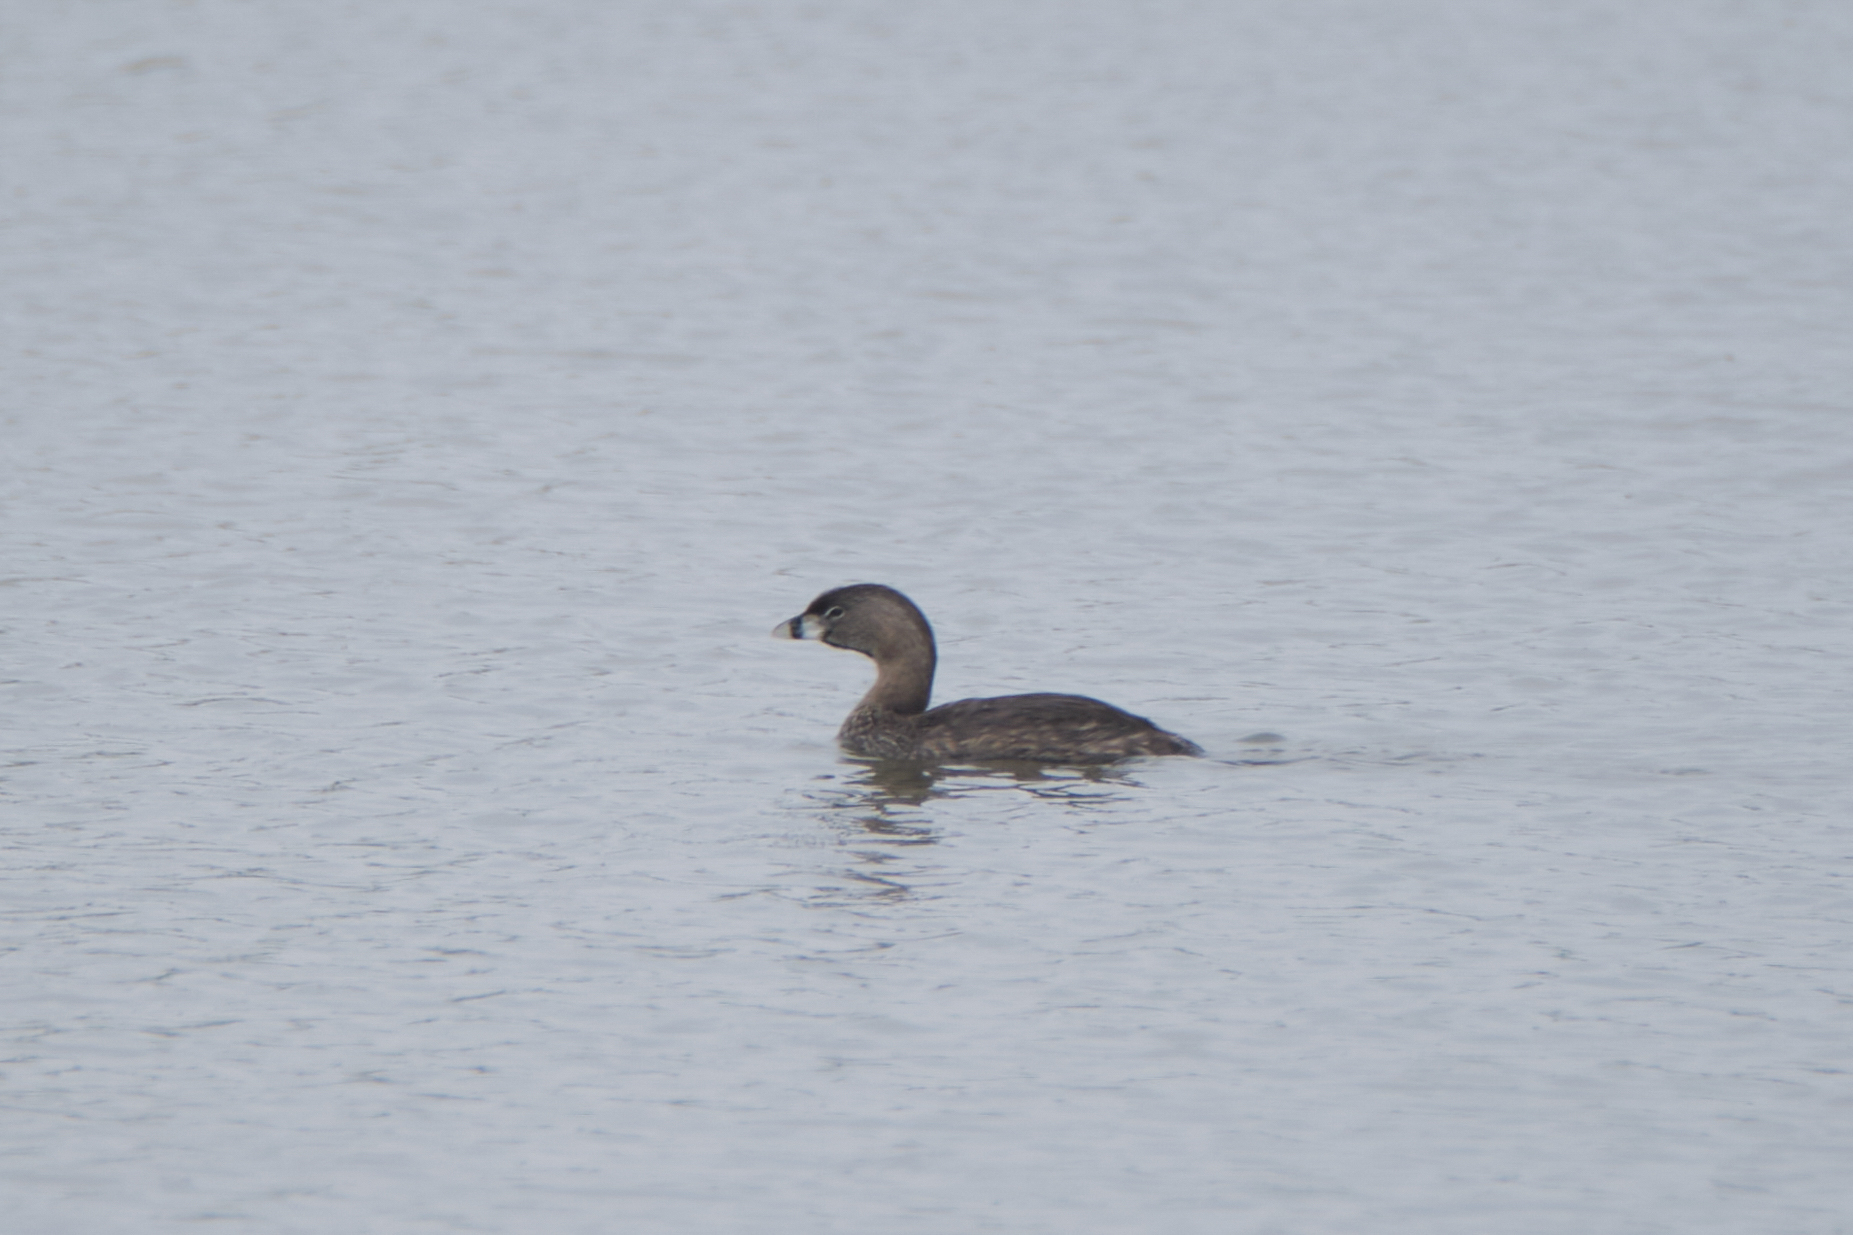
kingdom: Animalia
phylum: Chordata
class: Aves
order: Podicipediformes
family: Podicipedidae
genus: Podilymbus
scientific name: Podilymbus podiceps
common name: Pied-billed grebe
